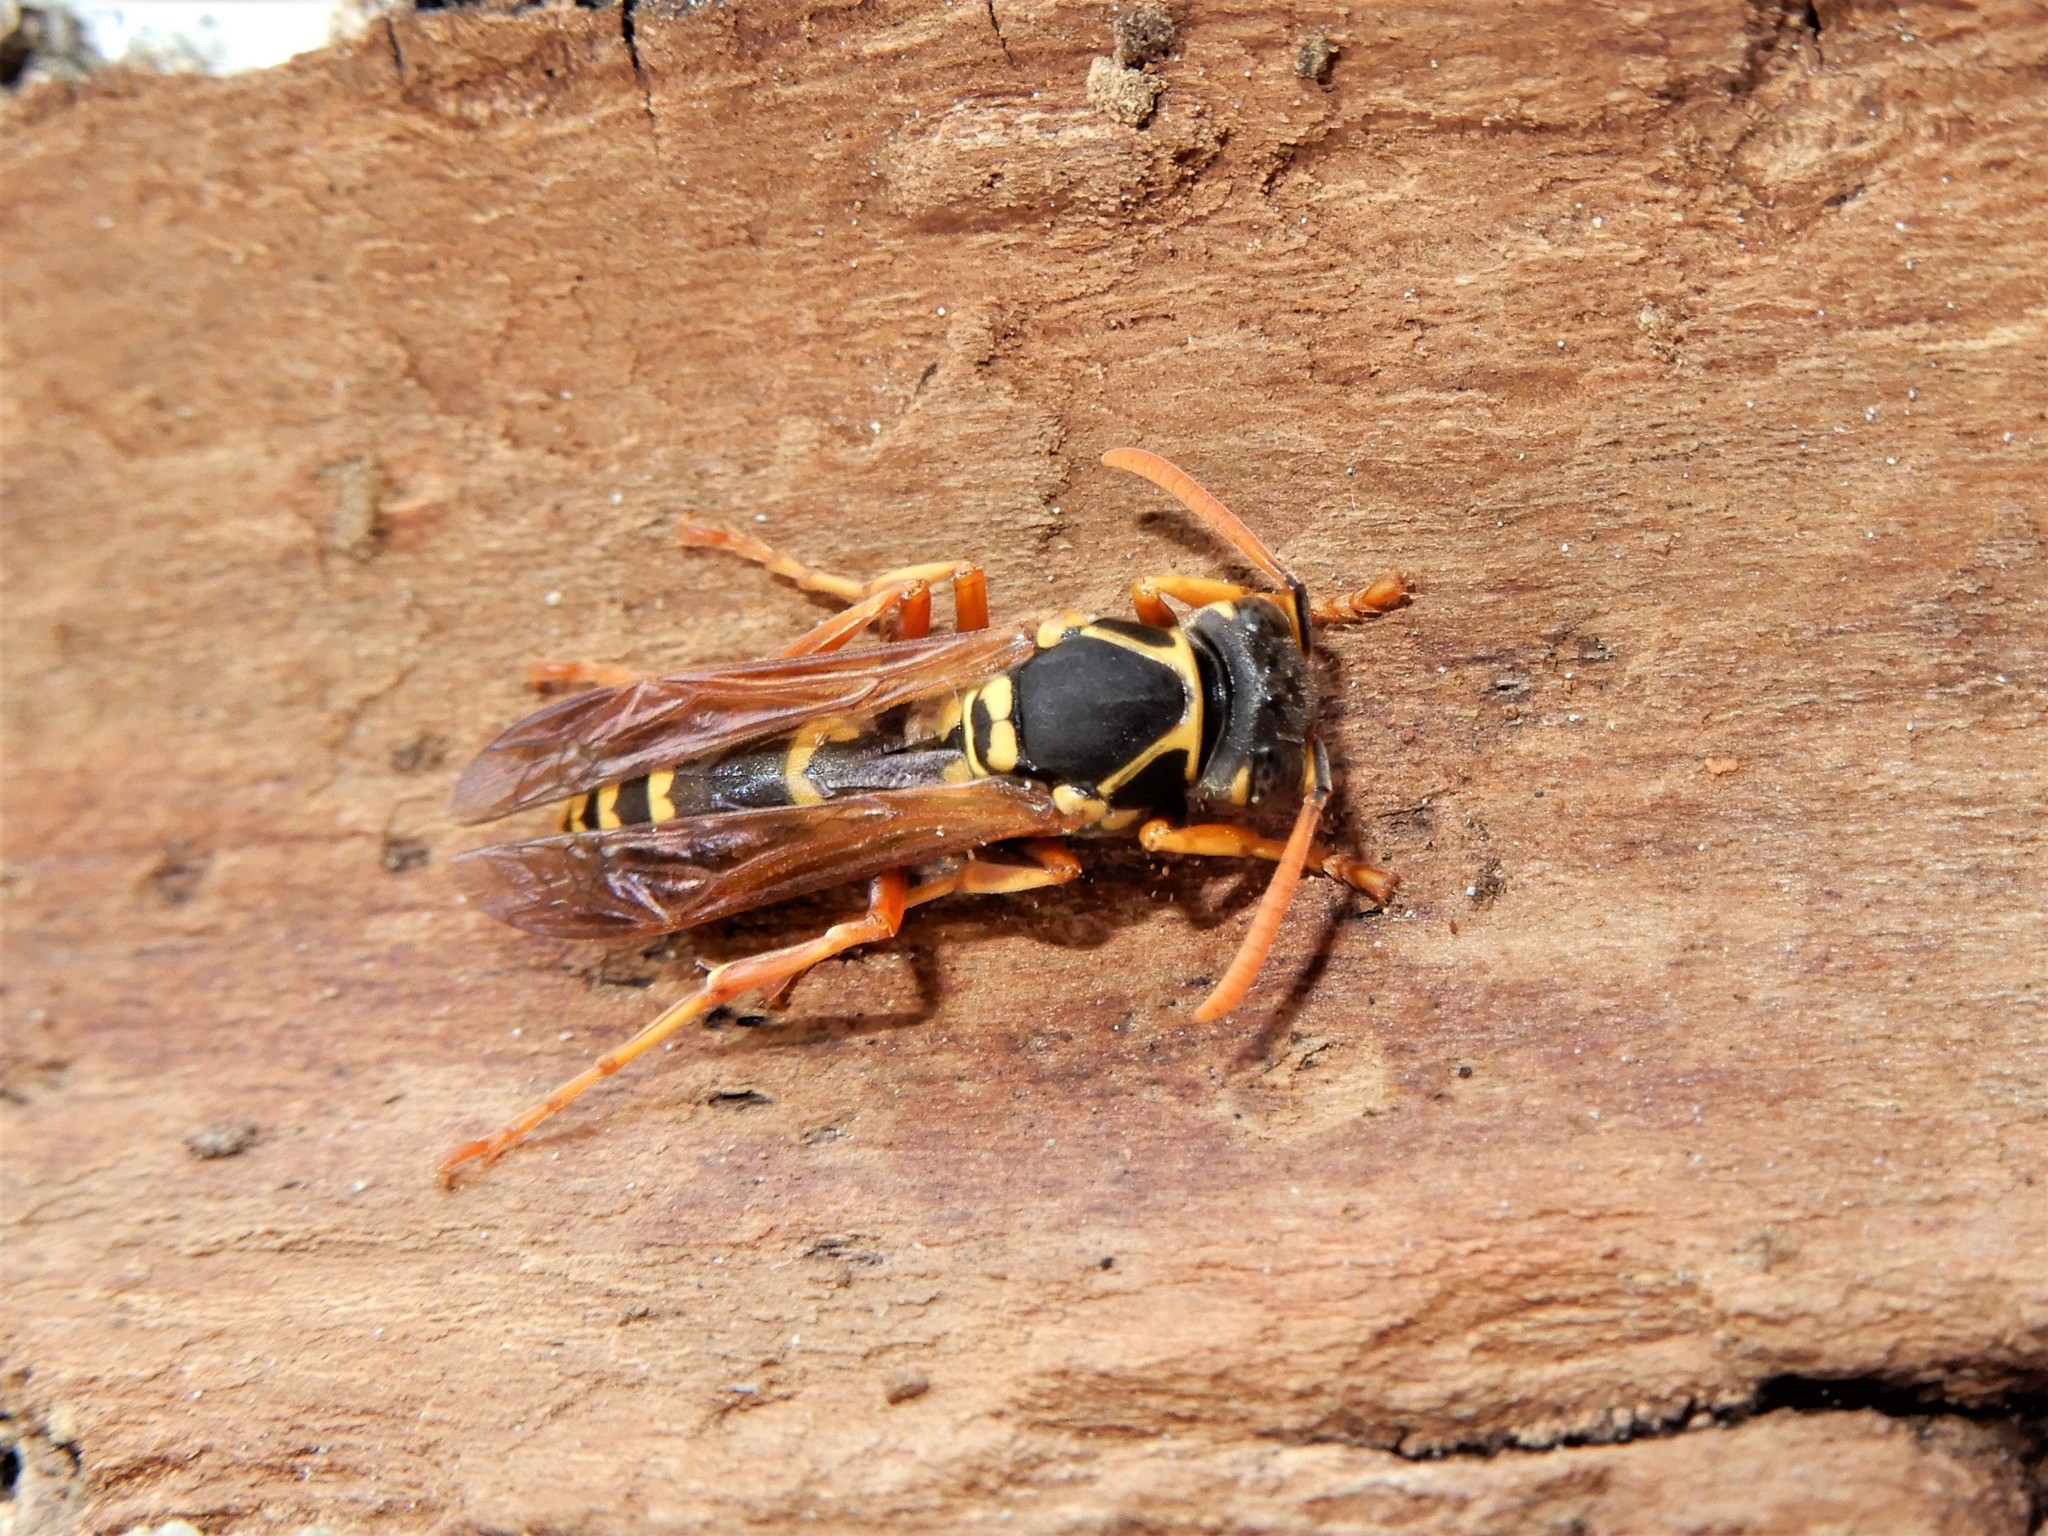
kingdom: Animalia
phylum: Arthropoda
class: Insecta
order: Hymenoptera
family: Eumenidae
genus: Polistes
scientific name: Polistes chinensis
